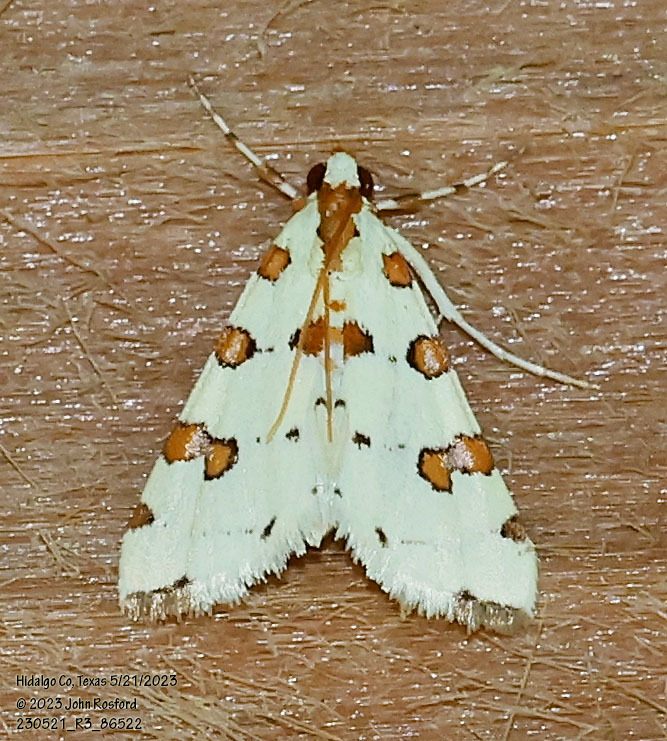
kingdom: Animalia
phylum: Arthropoda
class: Insecta
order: Lepidoptera
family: Crambidae
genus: Conchylodes
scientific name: Conchylodes
